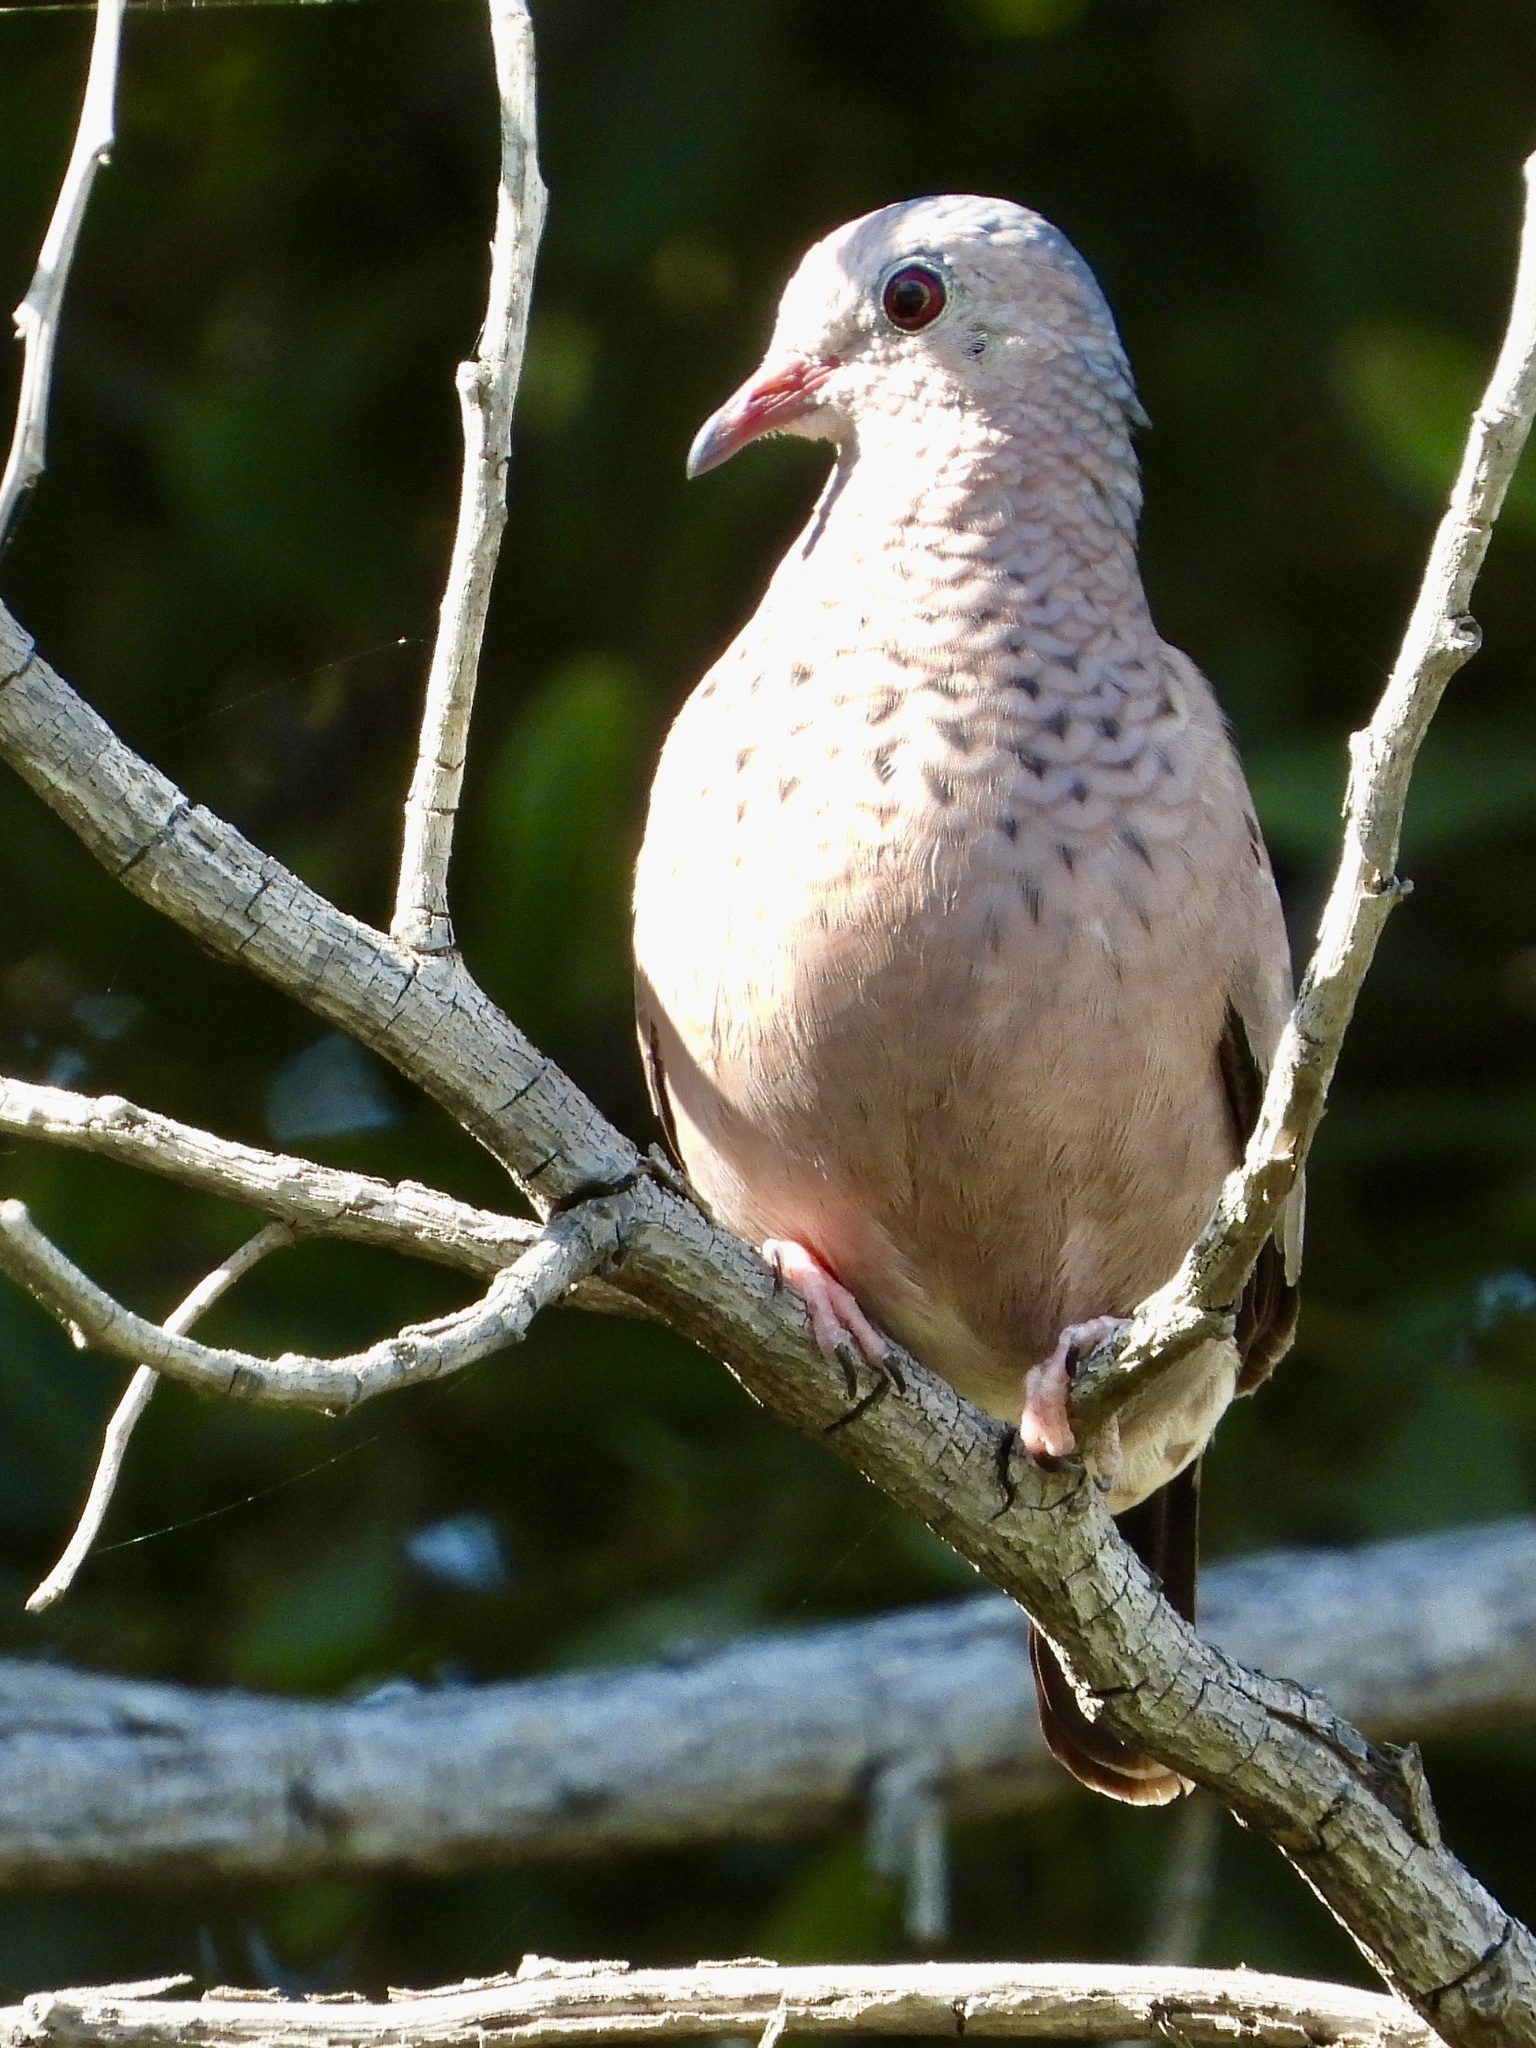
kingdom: Animalia
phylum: Chordata
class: Aves
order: Columbiformes
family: Columbidae
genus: Columbina
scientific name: Columbina passerina
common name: Common ground-dove
